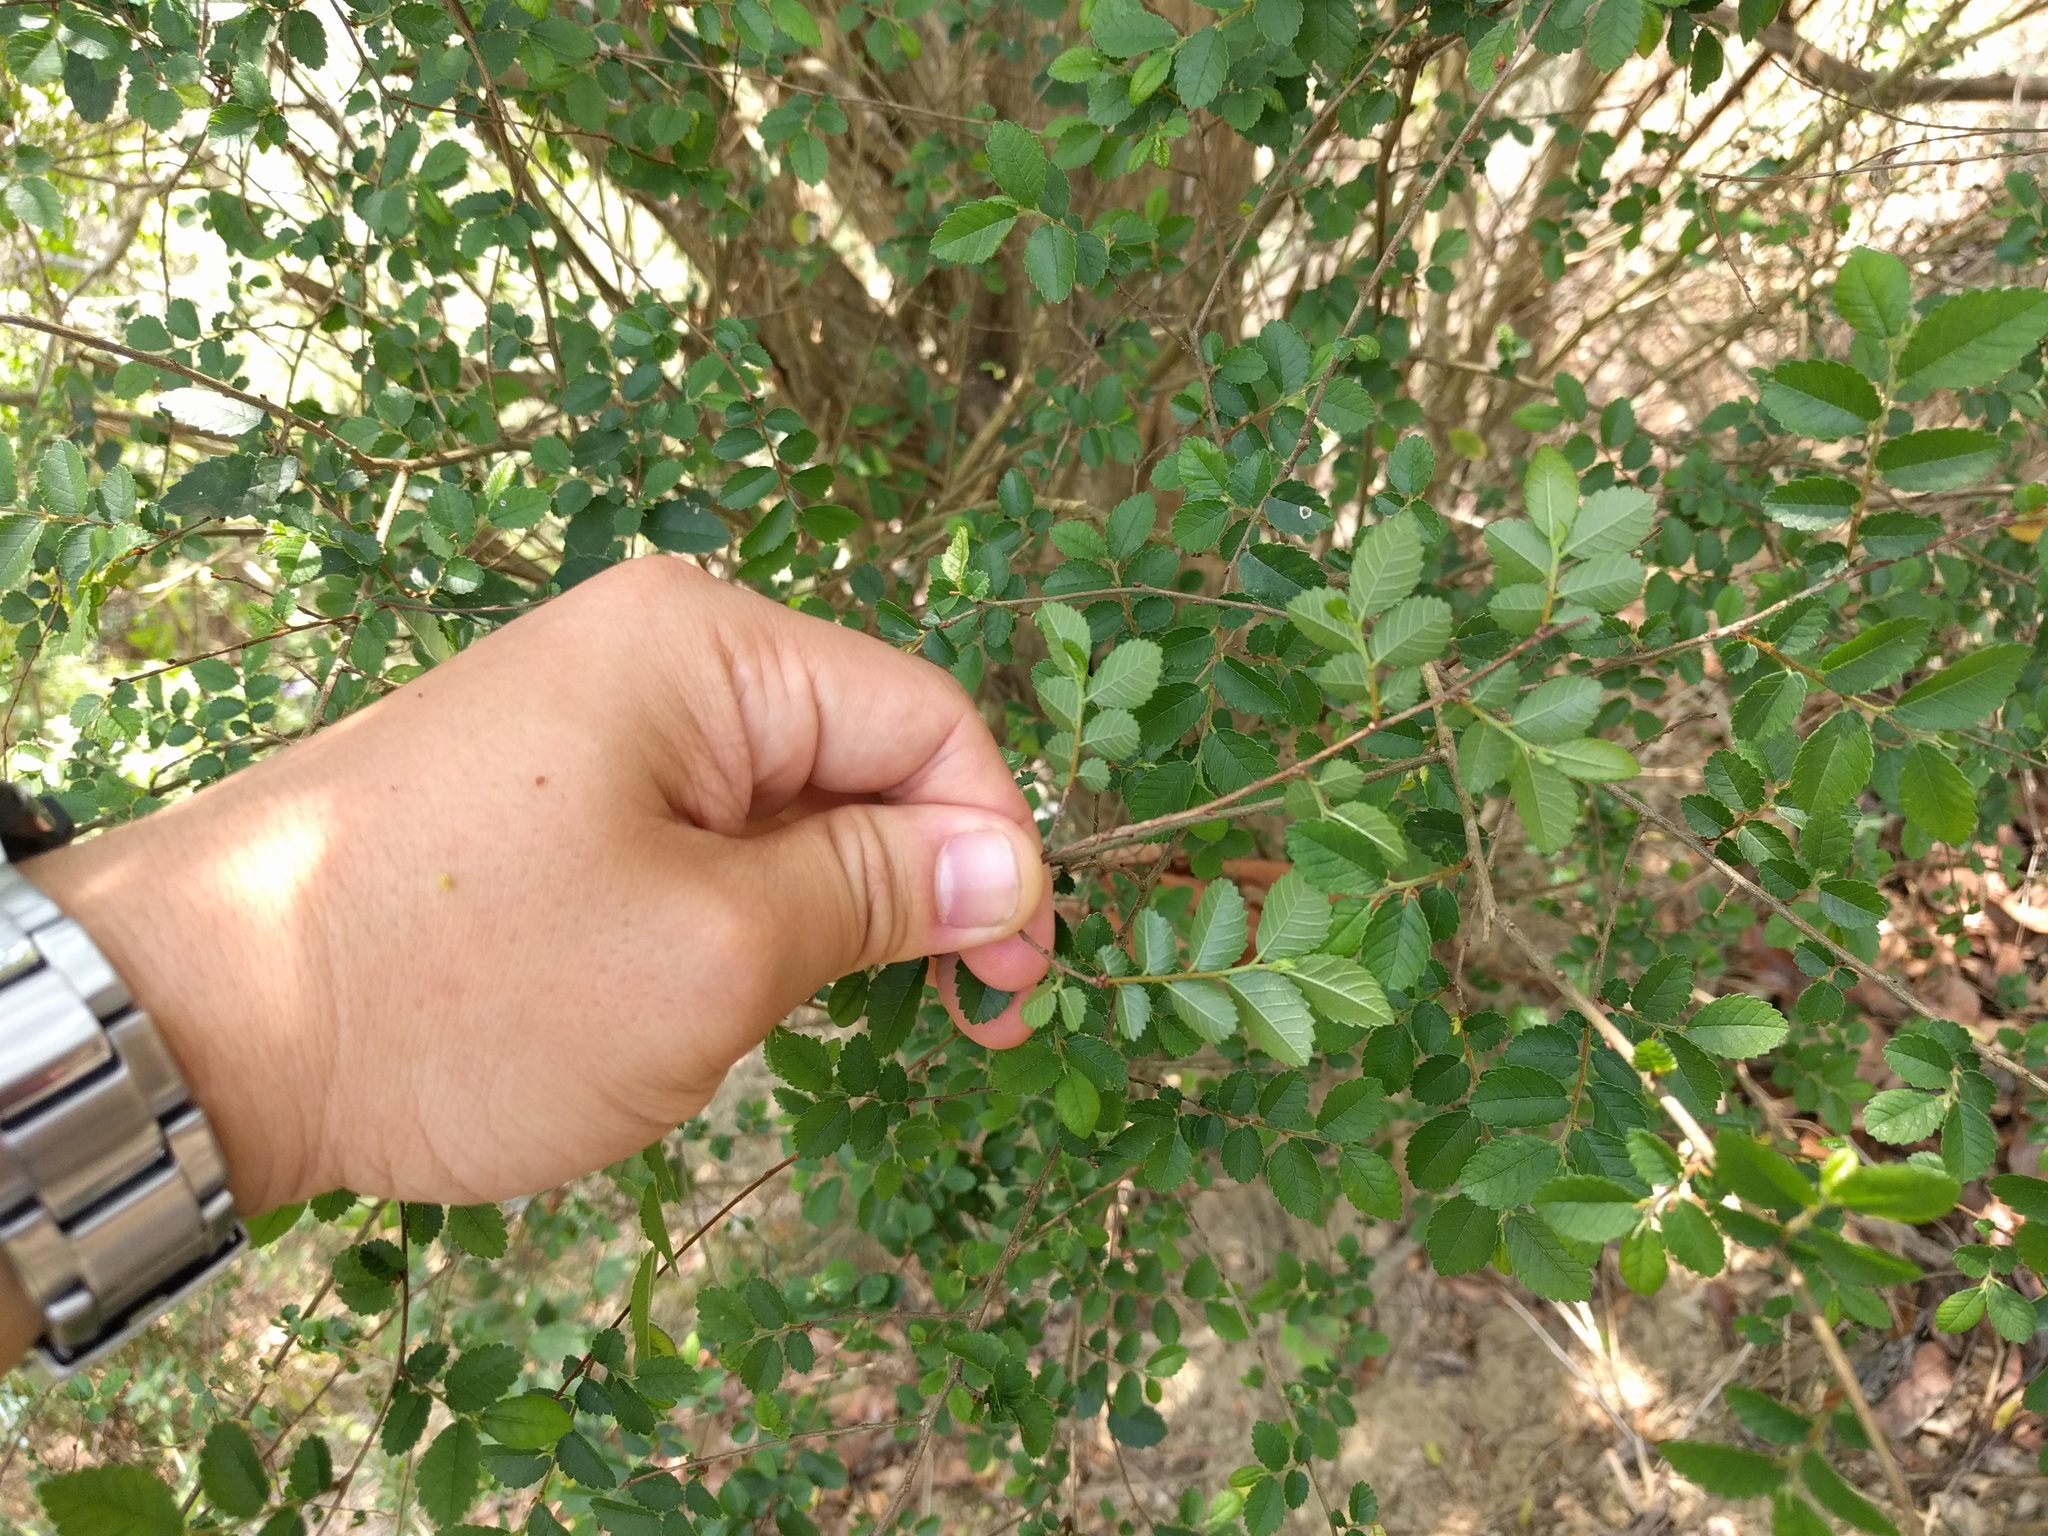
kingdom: Plantae
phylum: Tracheophyta
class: Magnoliopsida
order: Rosales
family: Ulmaceae
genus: Ulmus
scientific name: Ulmus parvifolia
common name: Chinese elm
